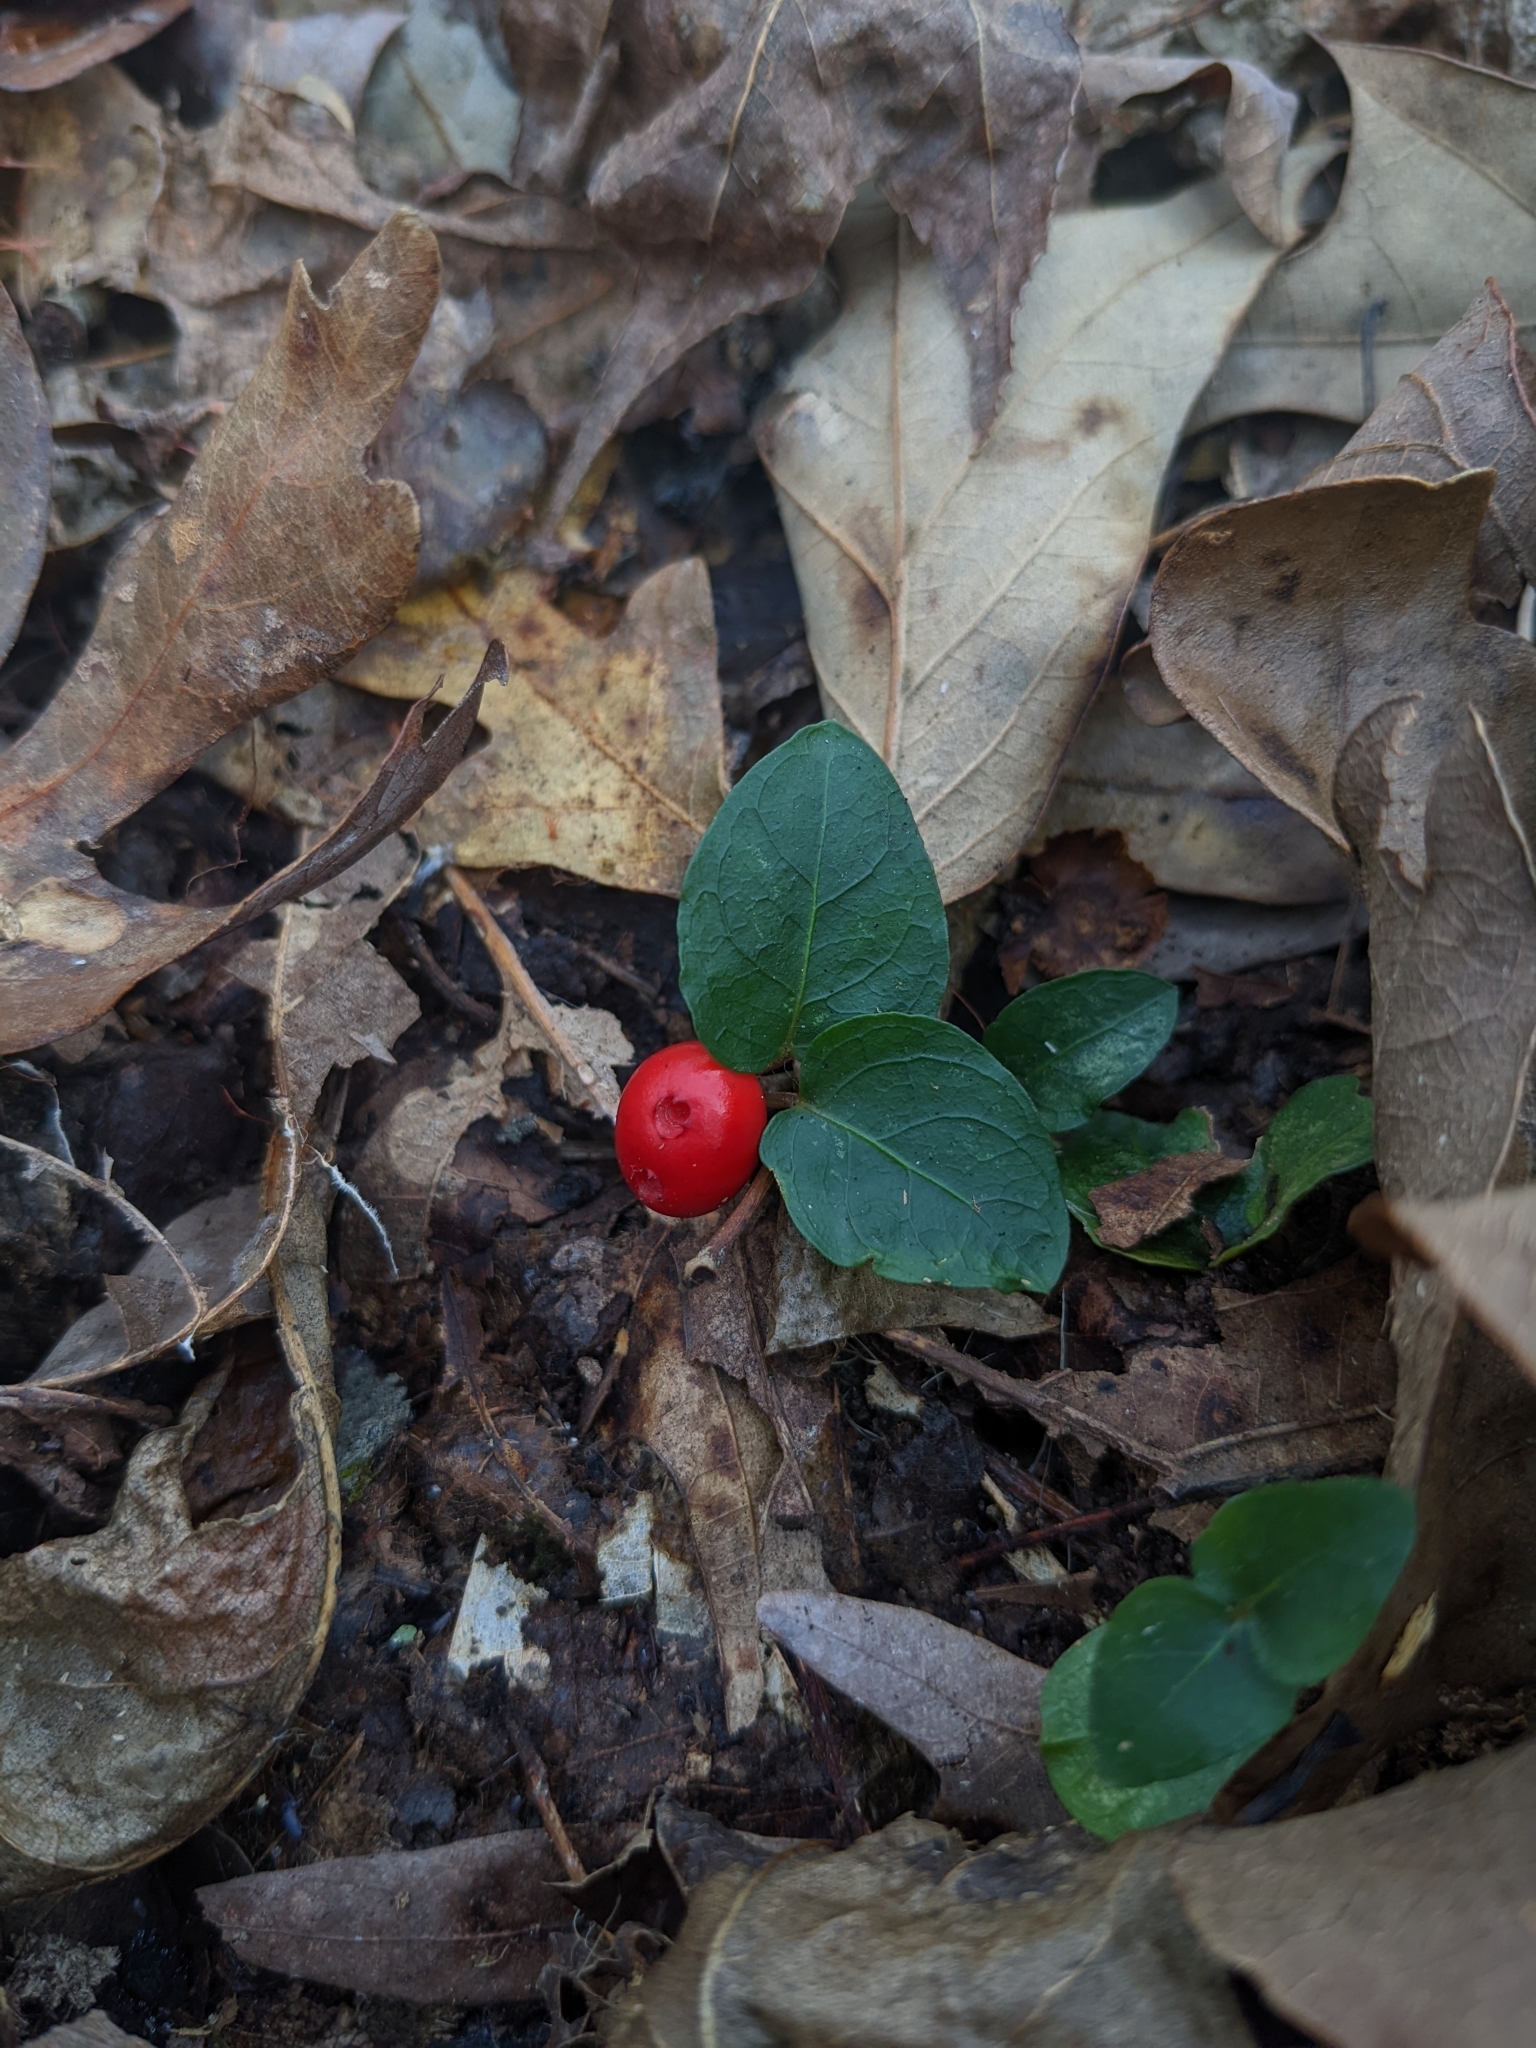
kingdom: Plantae
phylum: Tracheophyta
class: Magnoliopsida
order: Gentianales
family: Rubiaceae
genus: Mitchella
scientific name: Mitchella repens
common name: Partridge-berry
